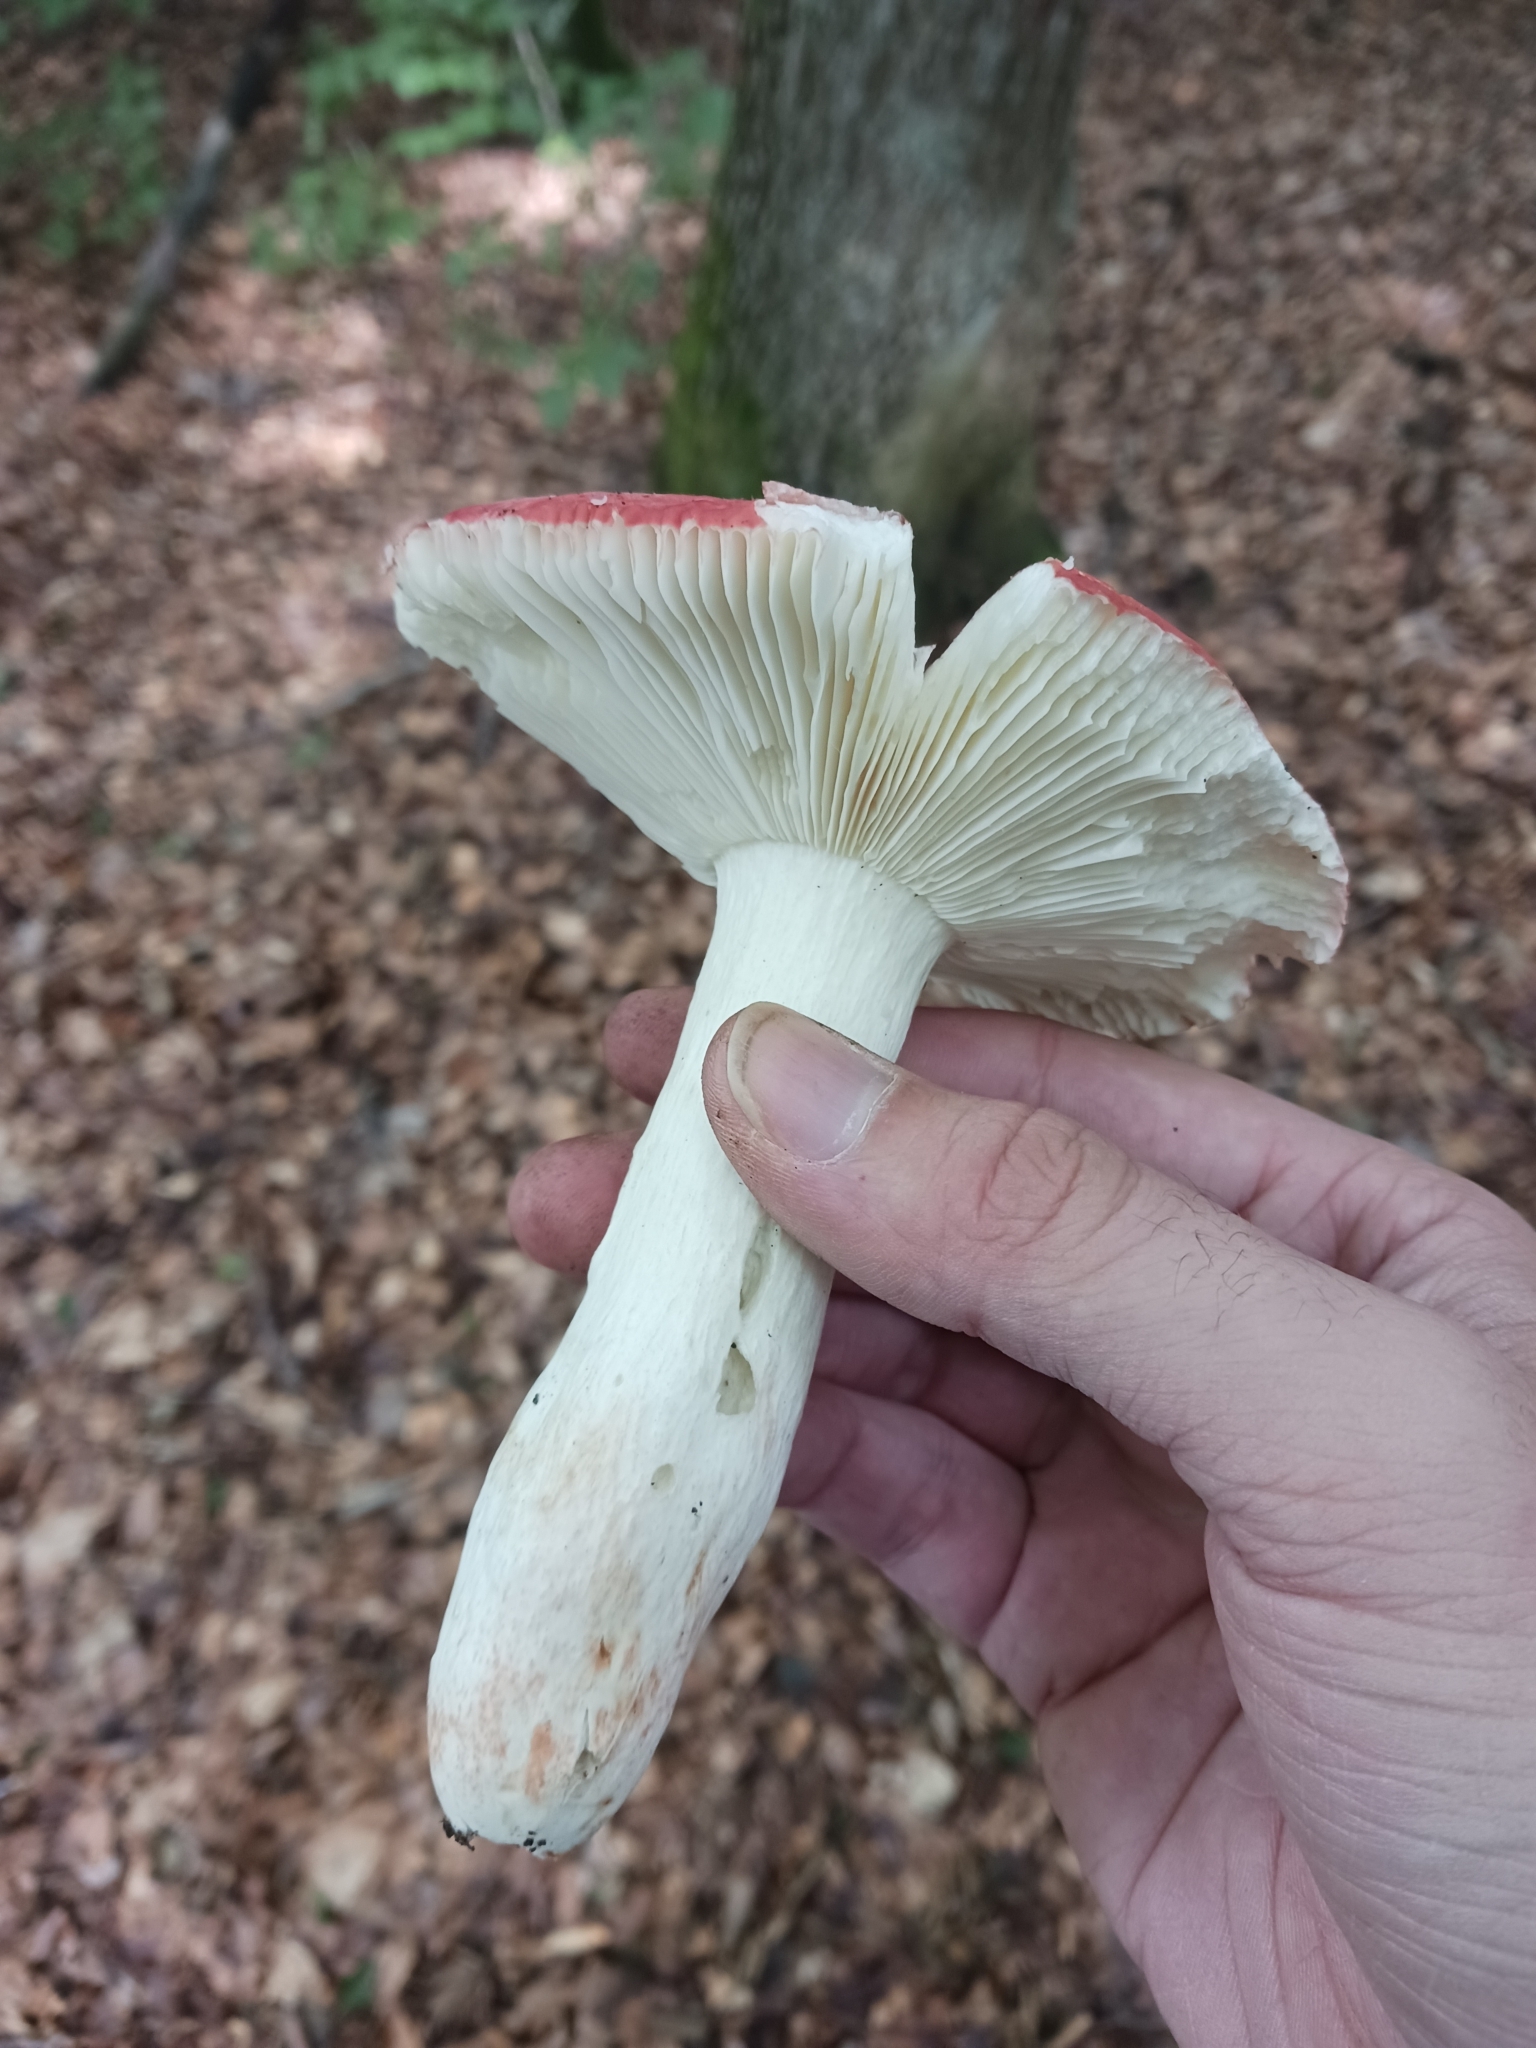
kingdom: Fungi
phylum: Basidiomycota
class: Agaricomycetes
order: Russulales
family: Russulaceae
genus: Russula
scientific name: Russula rosea
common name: Rosy brittlegill
